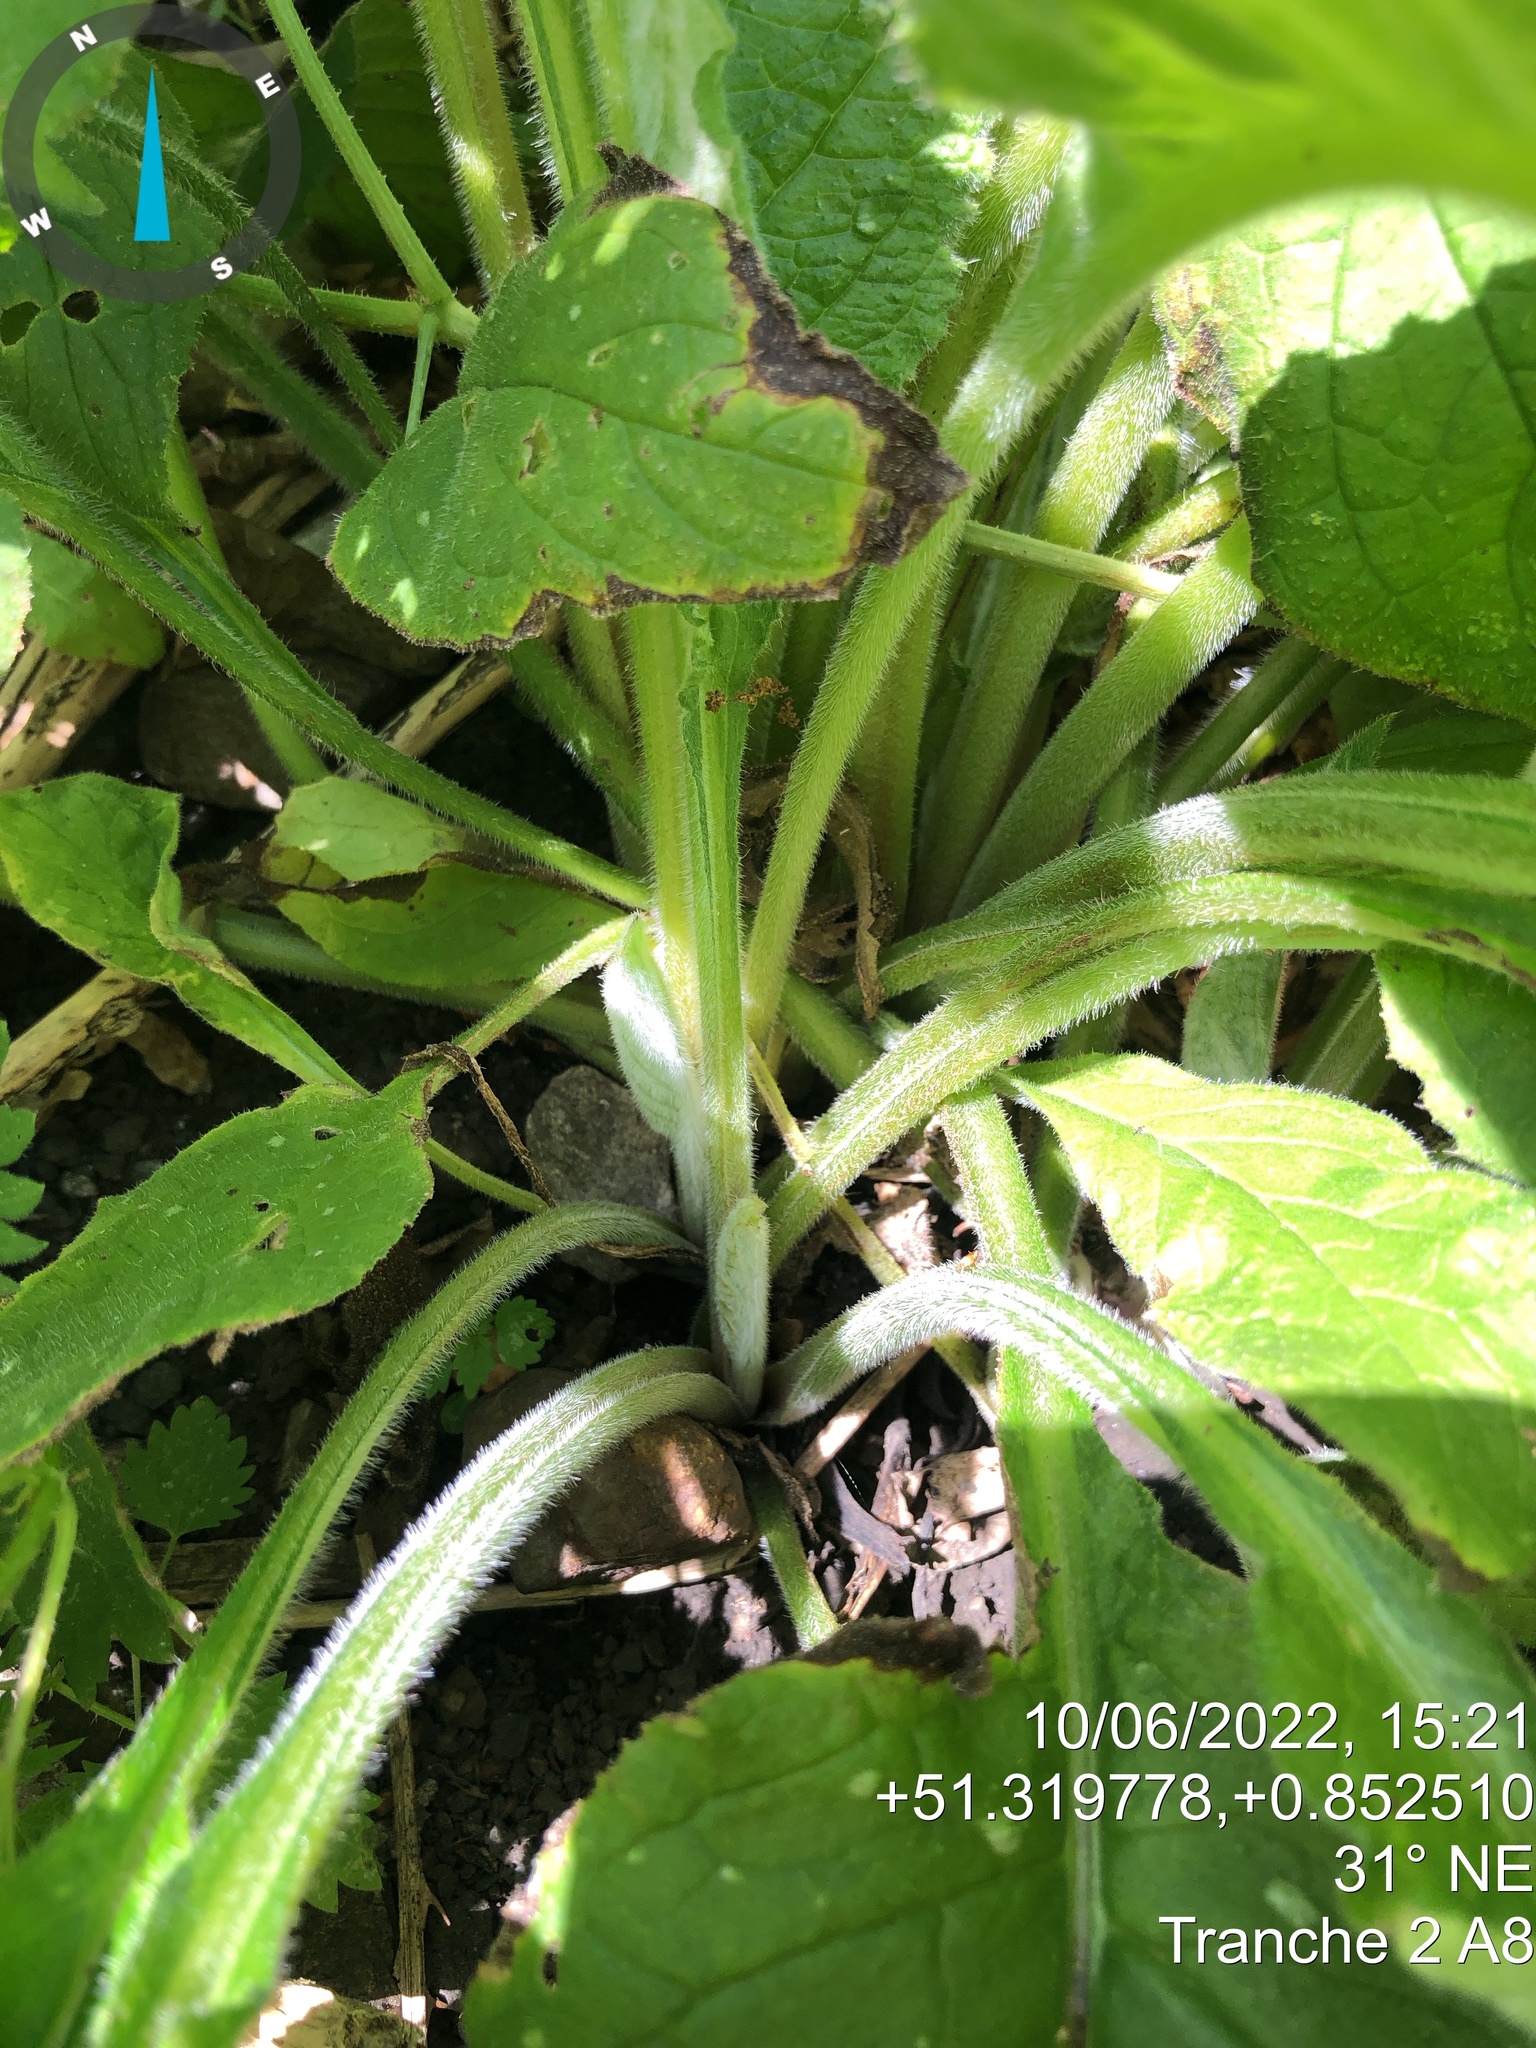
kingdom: Plantae
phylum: Tracheophyta
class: Magnoliopsida
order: Boraginales
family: Boraginaceae
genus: Pentaglottis
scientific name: Pentaglottis sempervirens
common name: Green alkanet
